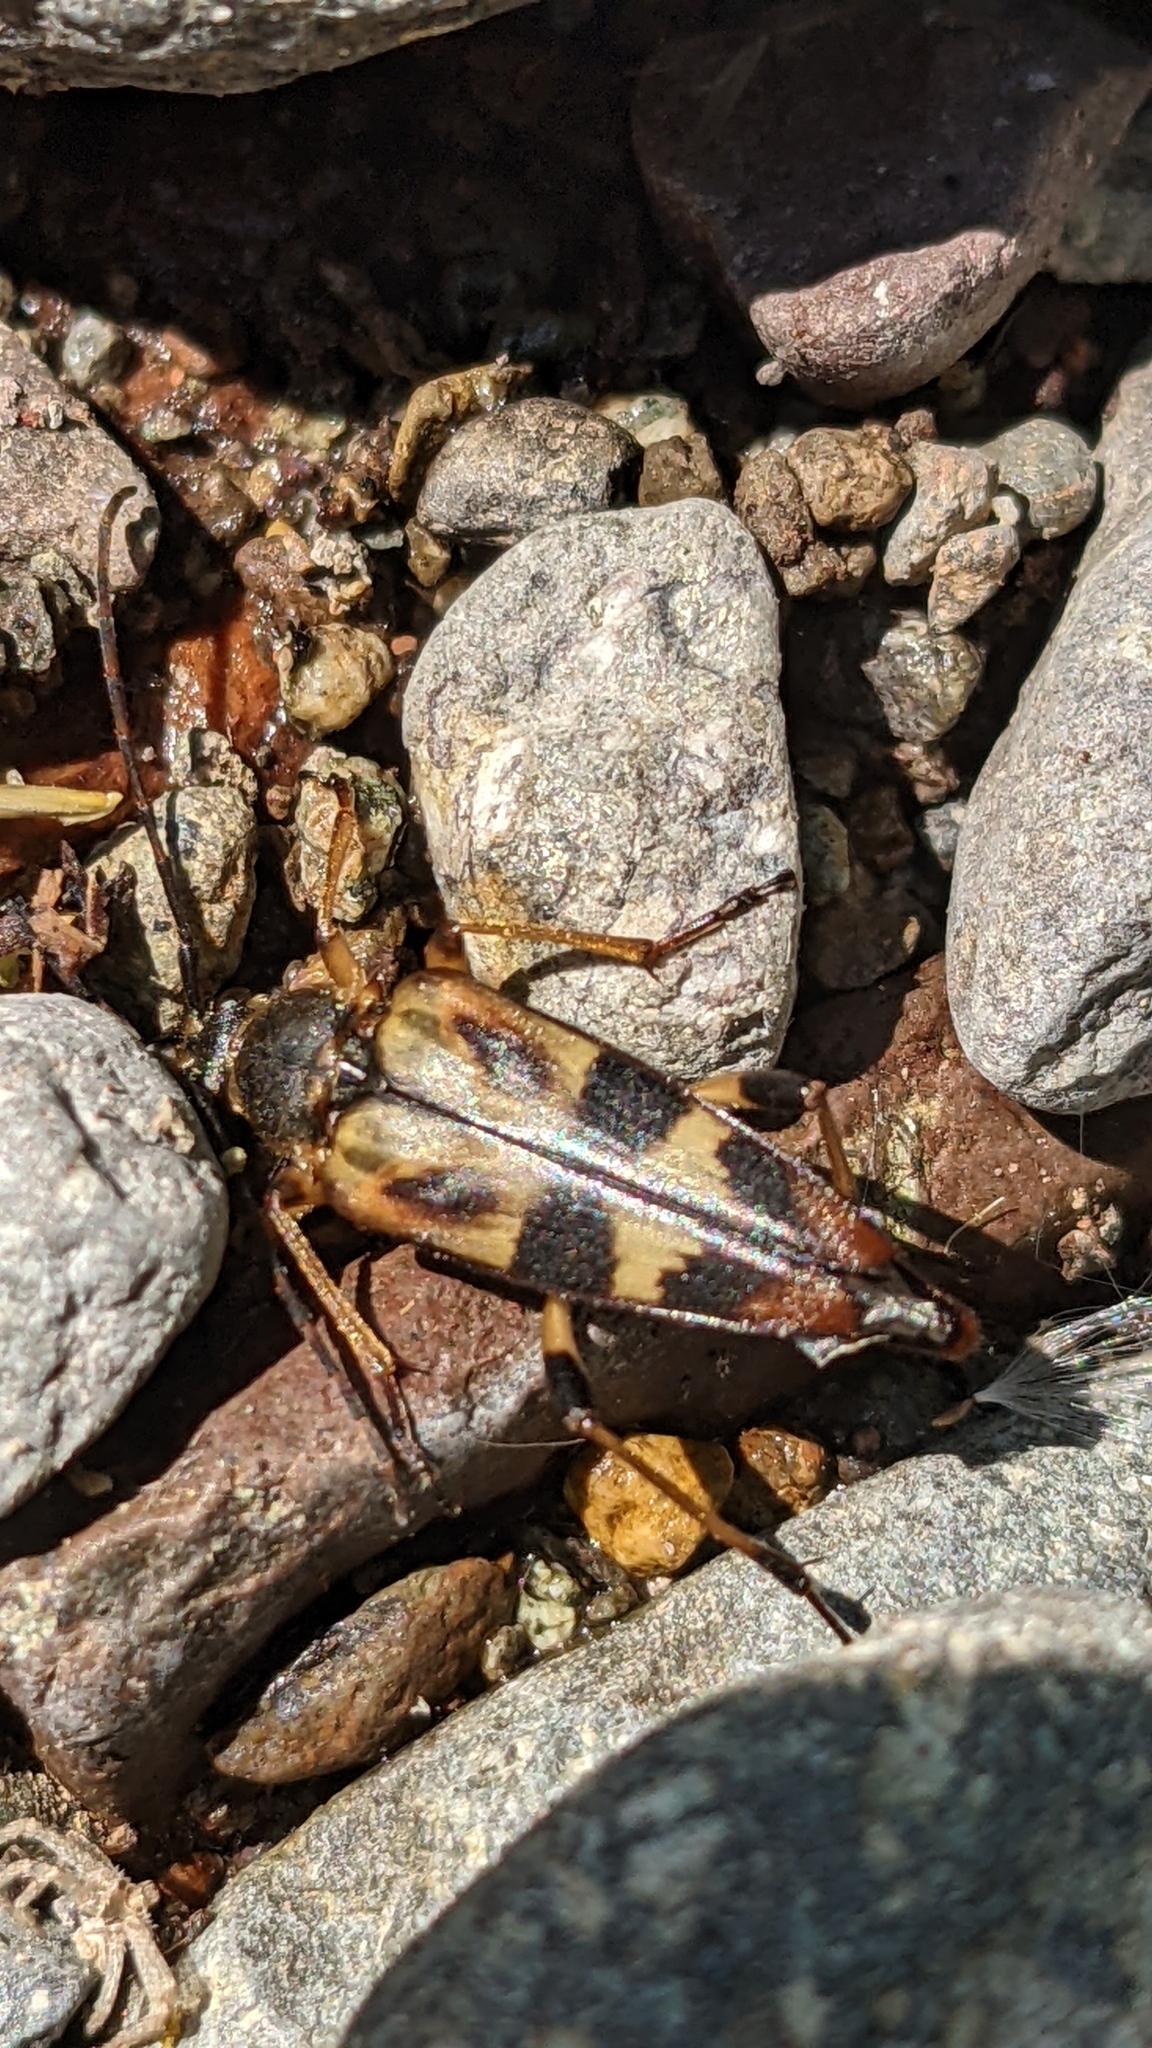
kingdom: Animalia
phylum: Arthropoda
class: Insecta
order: Coleoptera
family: Cerambycidae
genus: Etorofus
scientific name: Etorofus obliteratus
